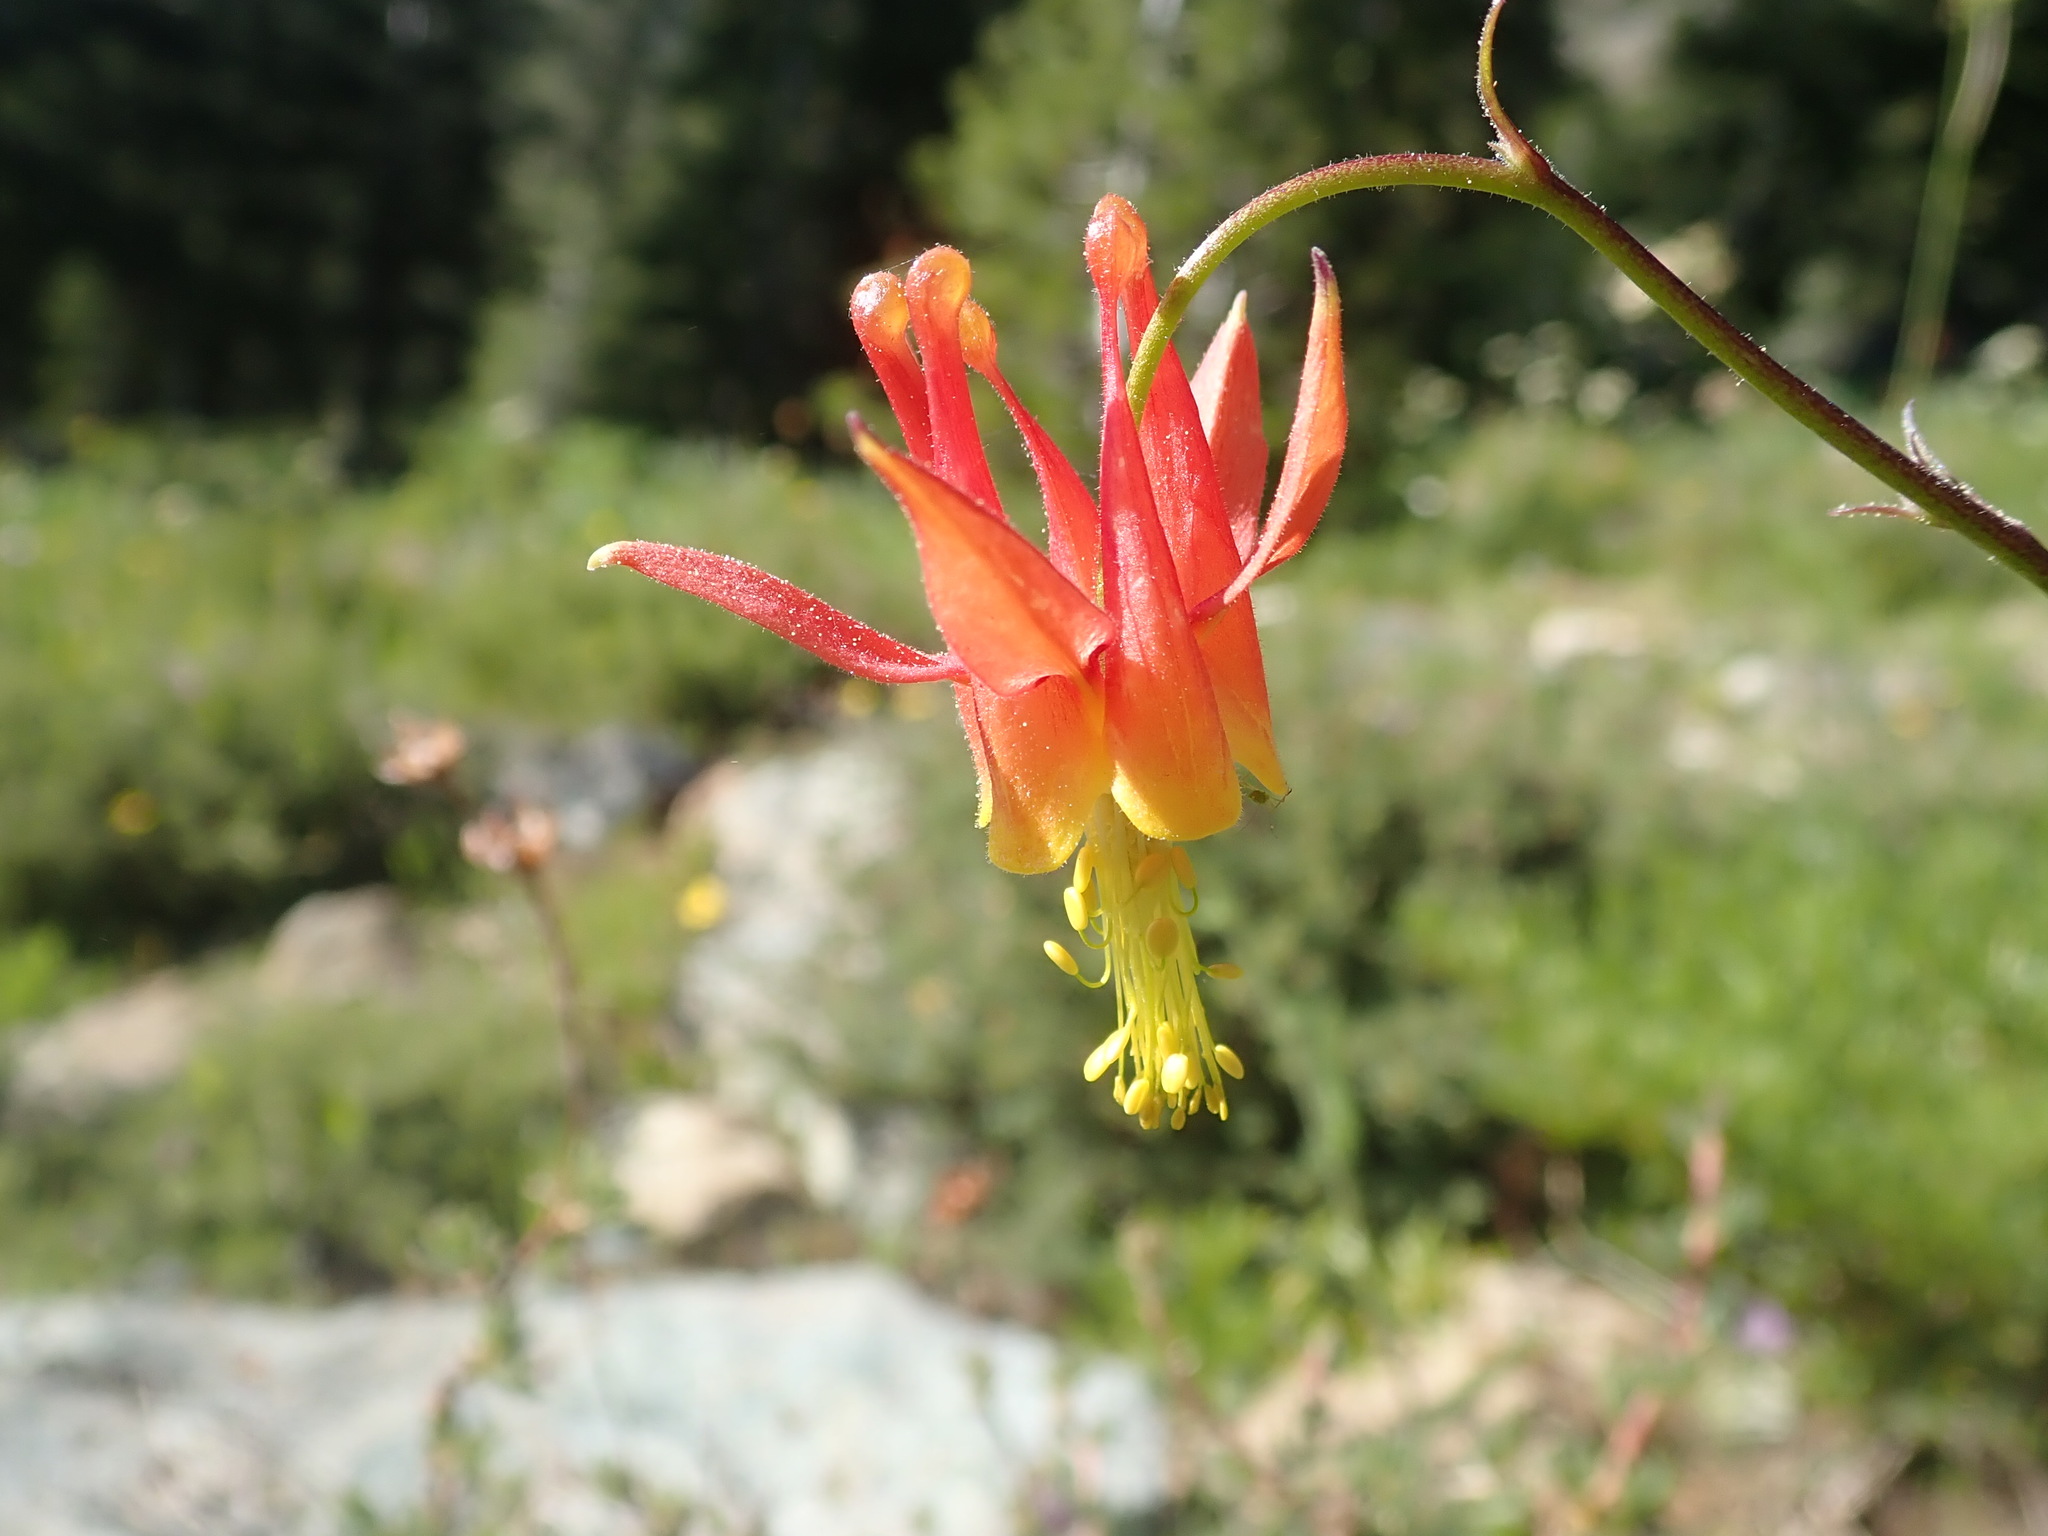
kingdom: Plantae
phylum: Tracheophyta
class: Magnoliopsida
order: Ranunculales
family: Ranunculaceae
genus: Aquilegia
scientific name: Aquilegia formosa
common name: Sitka columbine
